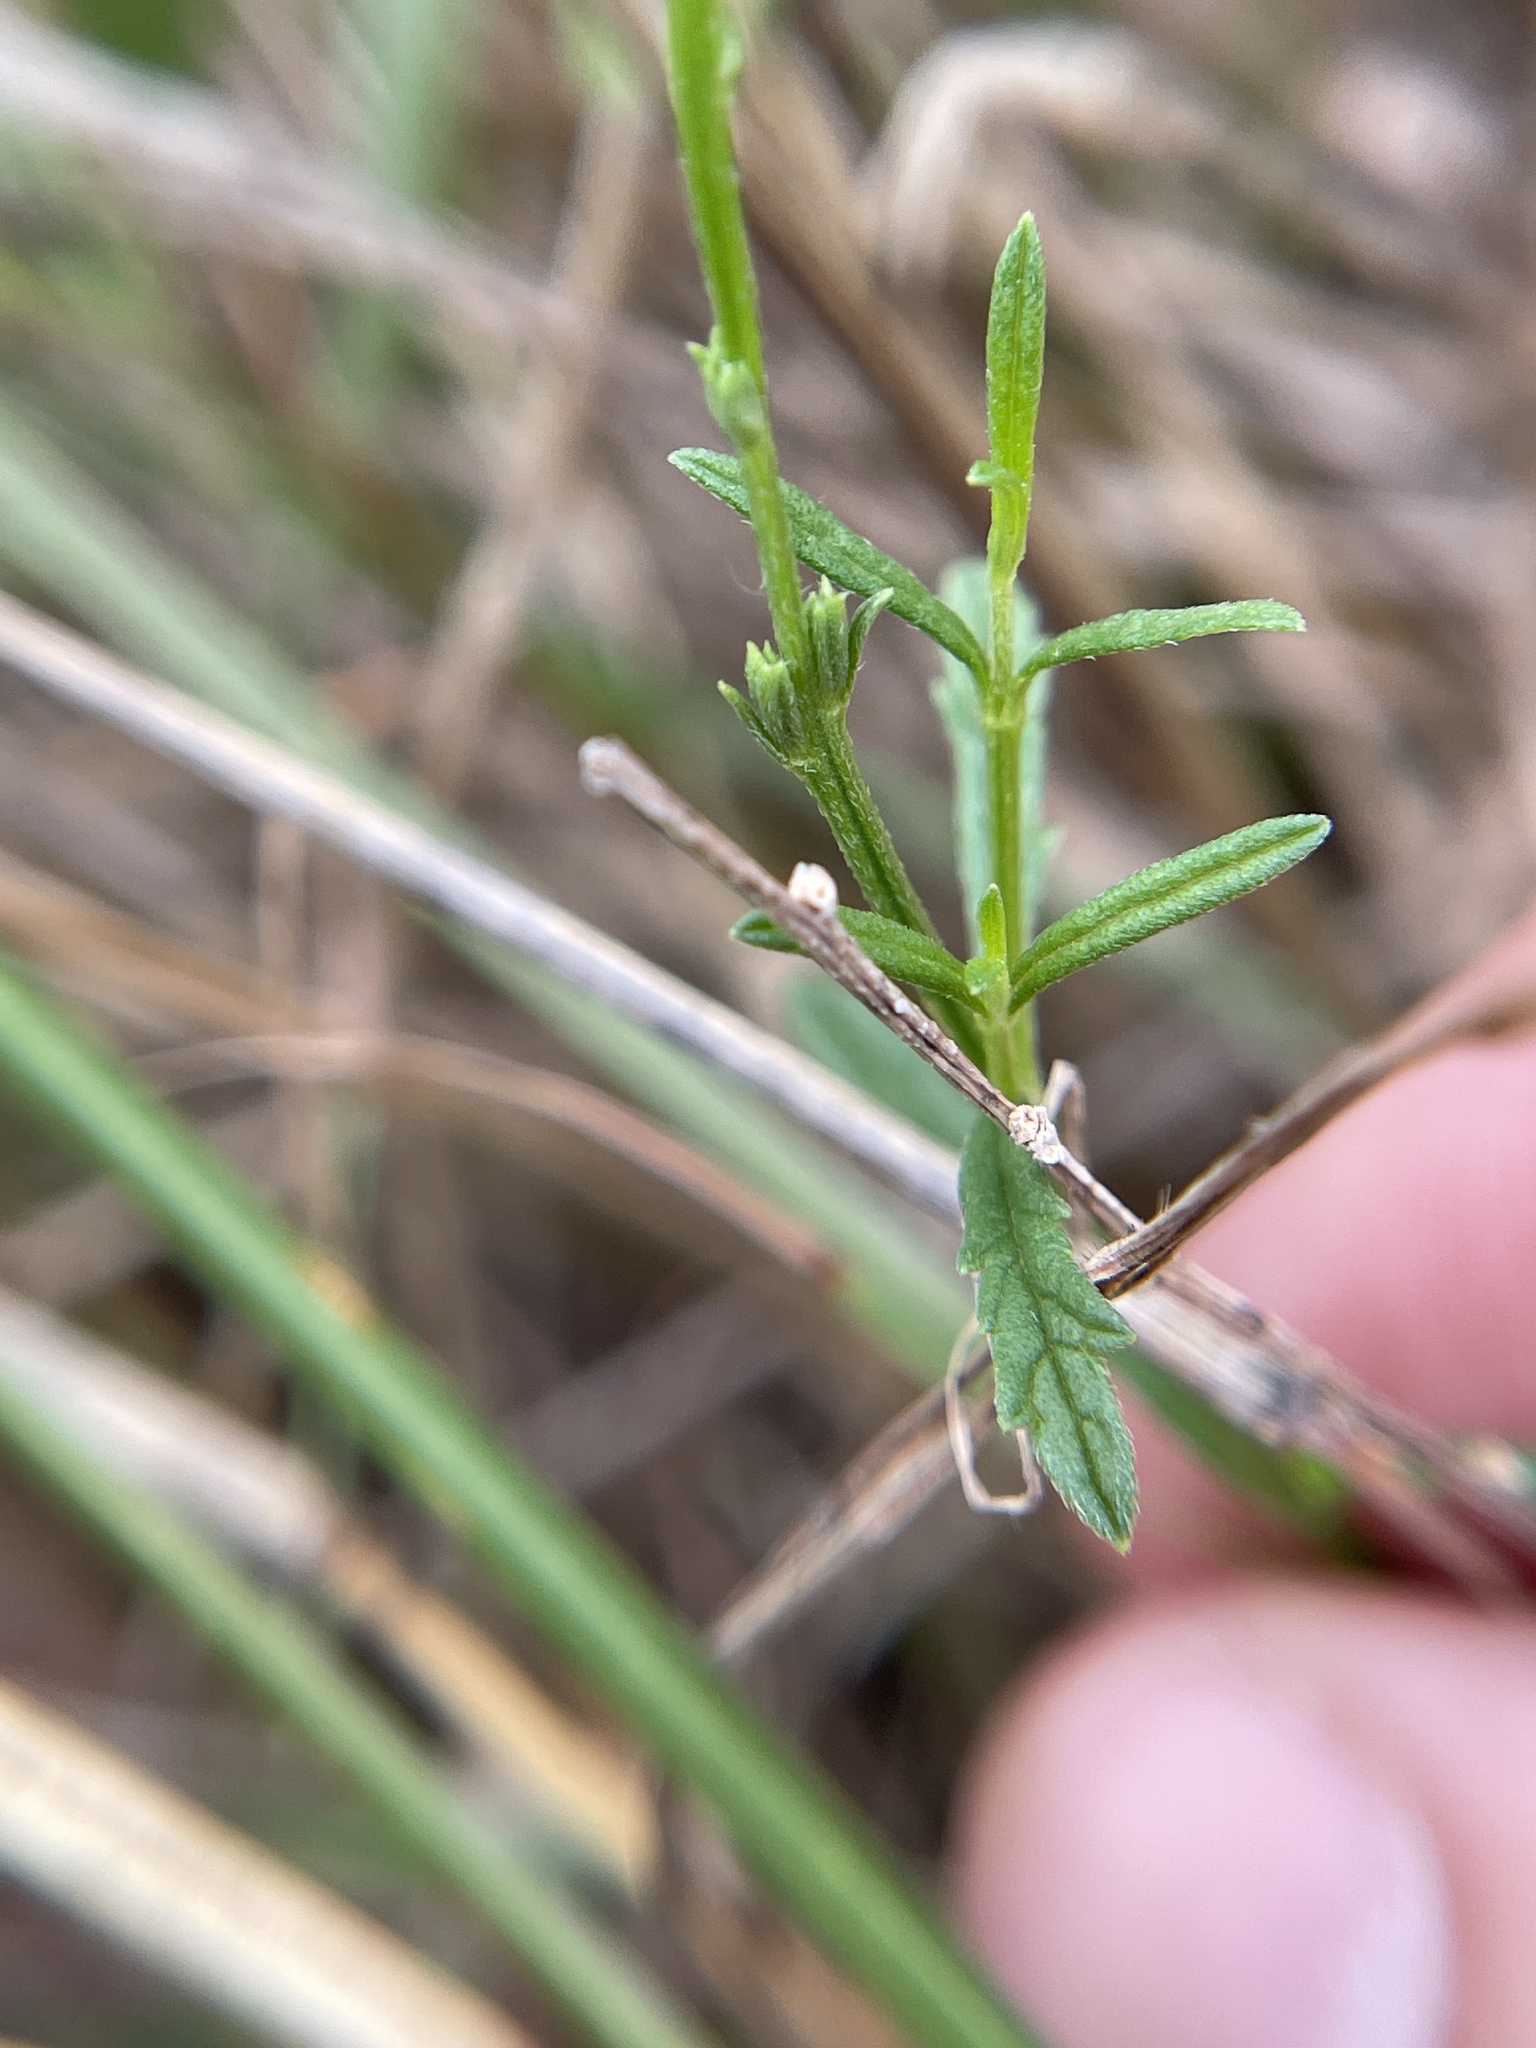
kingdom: Plantae
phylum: Tracheophyta
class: Magnoliopsida
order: Lamiales
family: Verbenaceae
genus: Verbena
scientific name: Verbena halei
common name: Texas vervain
